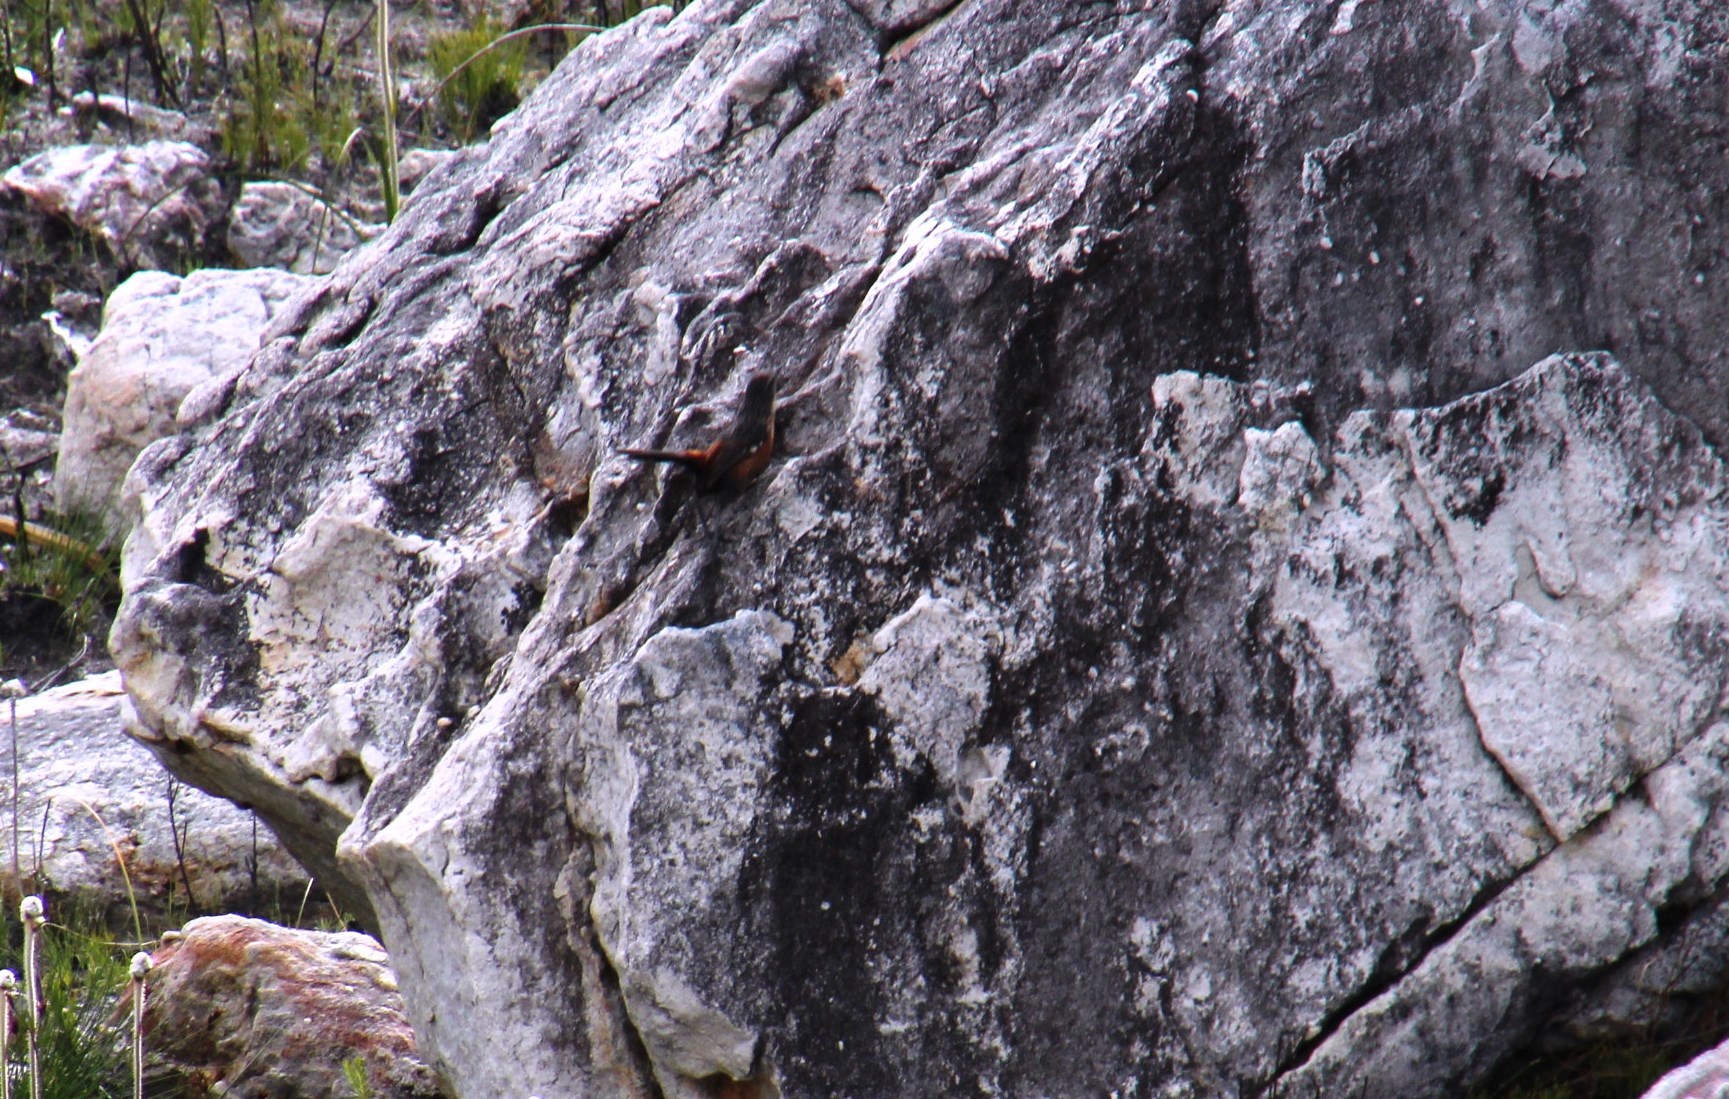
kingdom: Animalia
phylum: Chordata
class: Aves
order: Passeriformes
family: Chaetopidae
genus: Chaetops
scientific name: Chaetops frenatus
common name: Cape rockjumper
